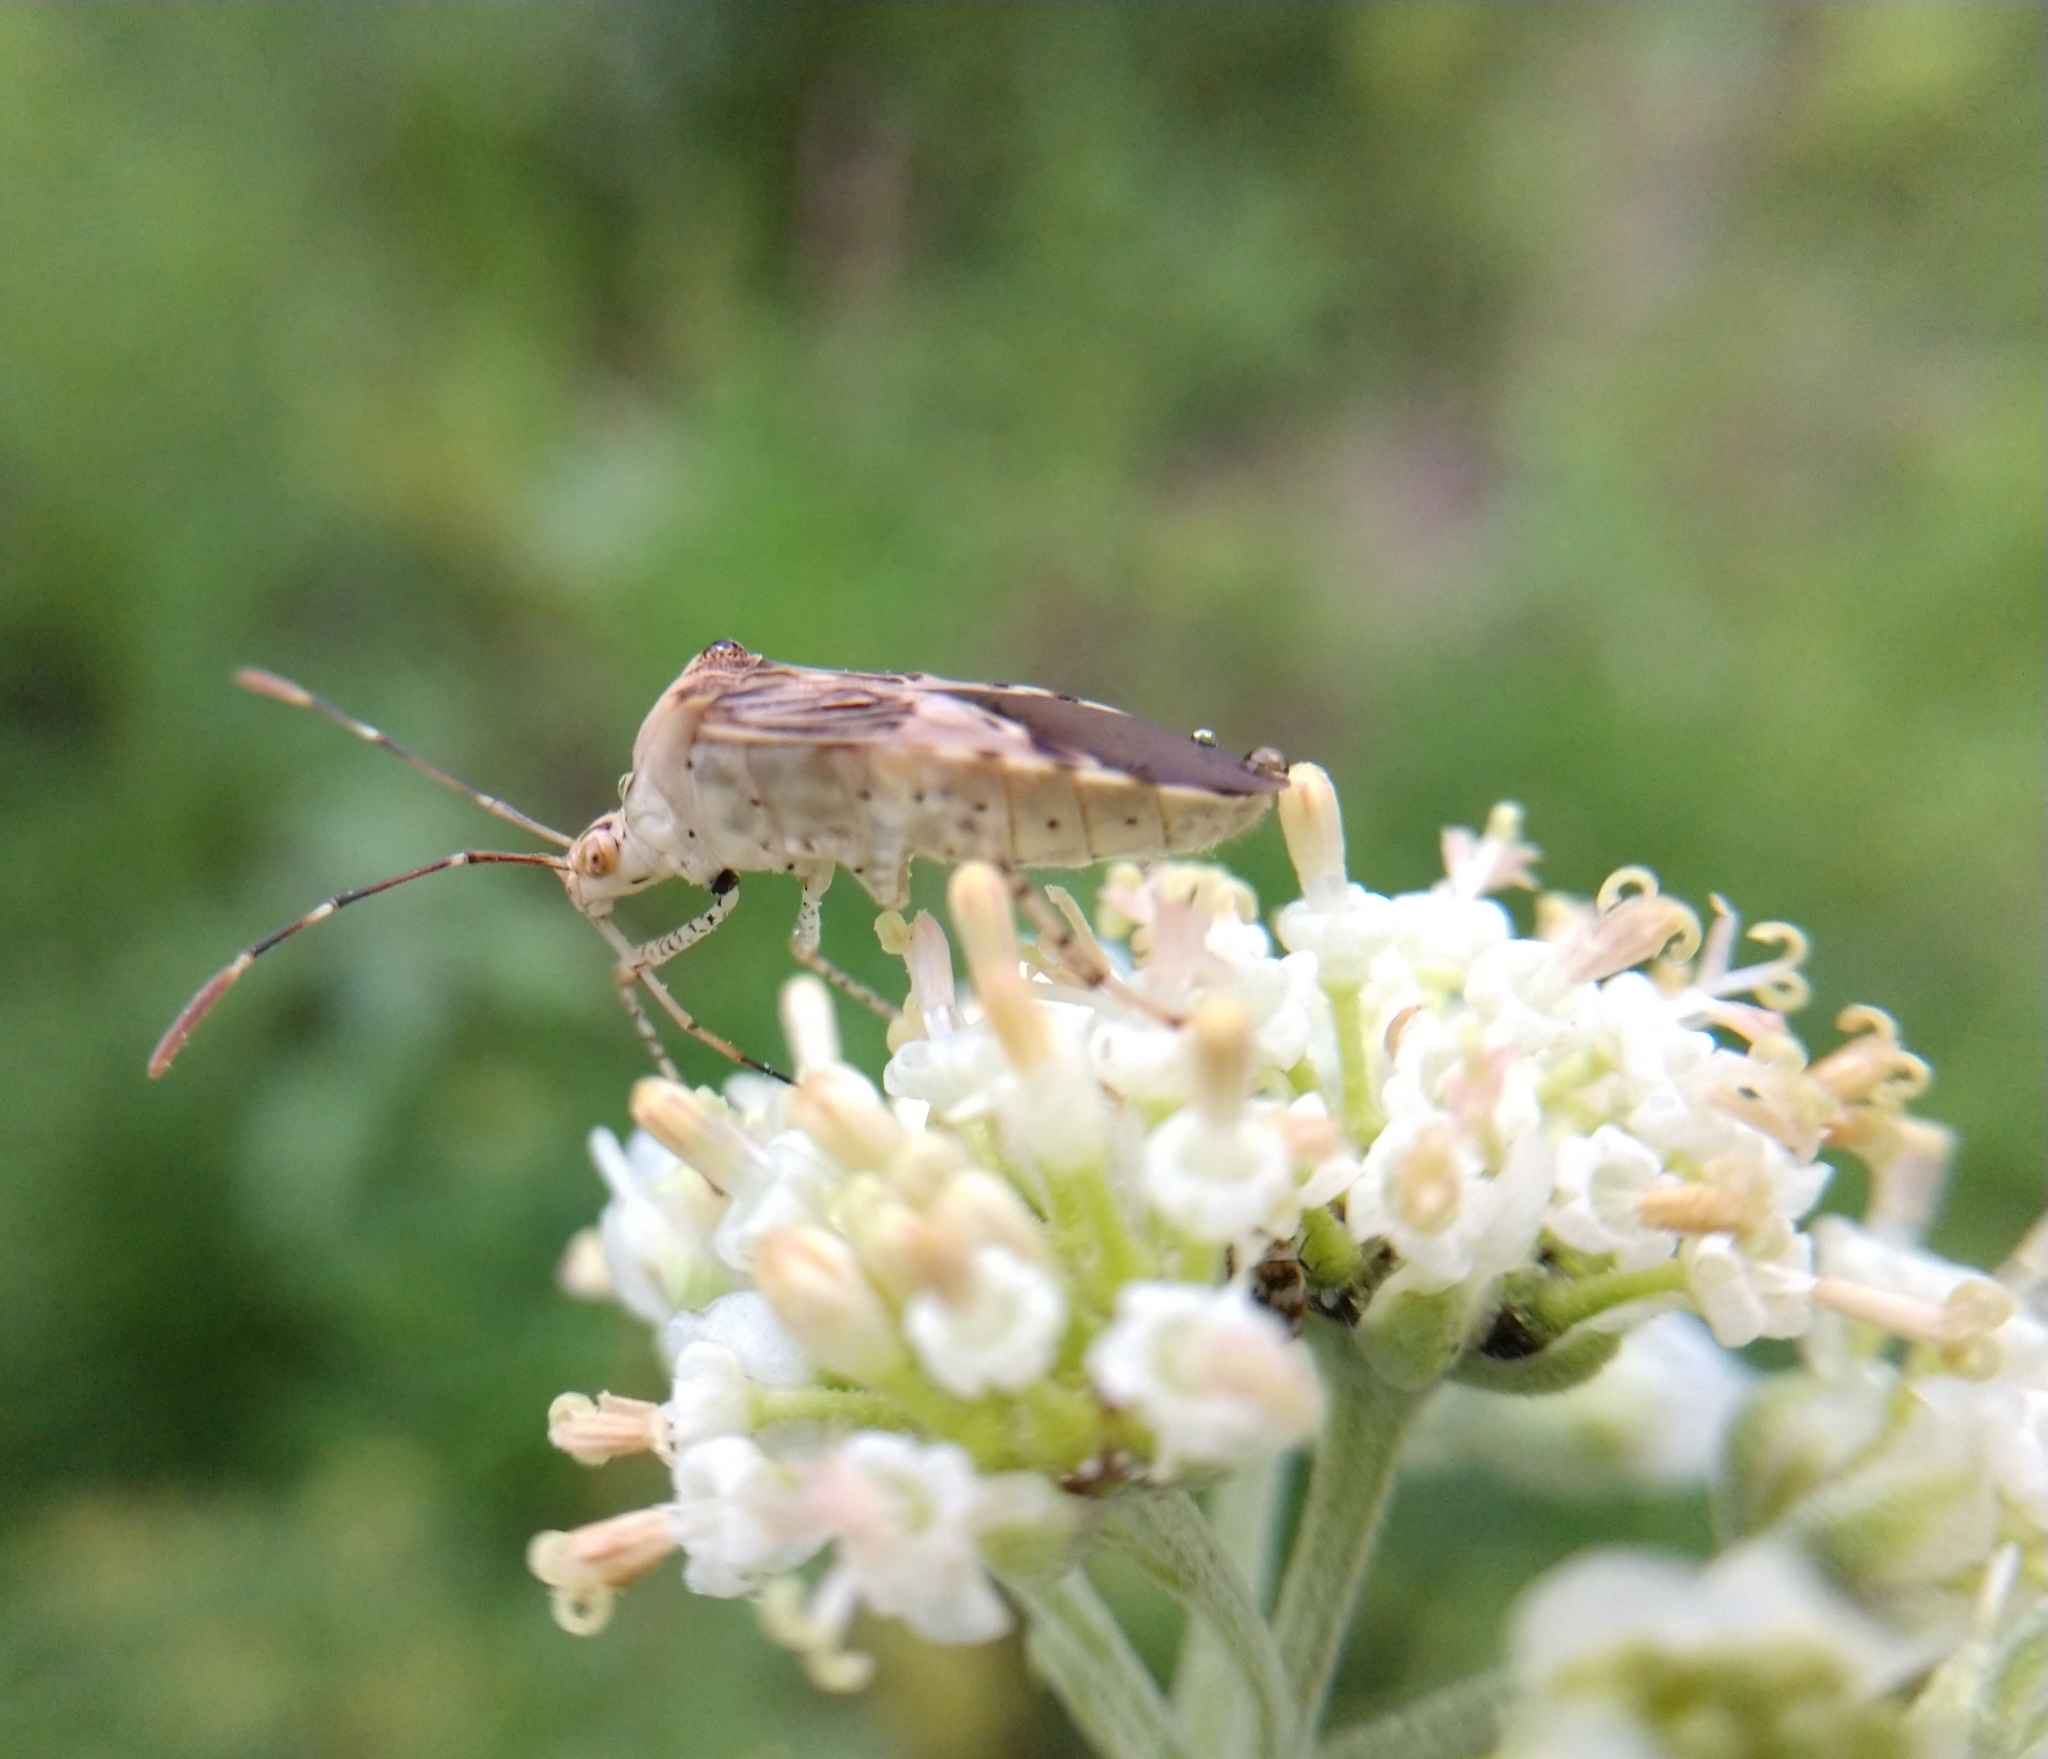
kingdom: Animalia
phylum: Arthropoda
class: Insecta
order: Hemiptera
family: Coreidae
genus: Hypselonotus
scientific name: Hypselonotus punctiventris
